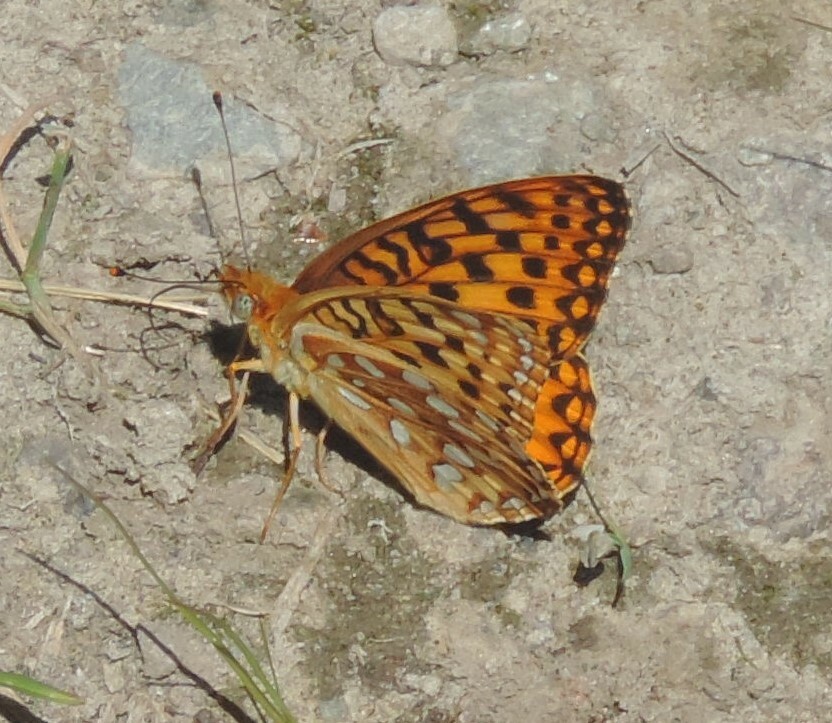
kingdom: Animalia
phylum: Arthropoda
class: Insecta
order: Lepidoptera
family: Nymphalidae
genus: Speyeria
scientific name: Speyeria zerene
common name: Zerene fritillary
